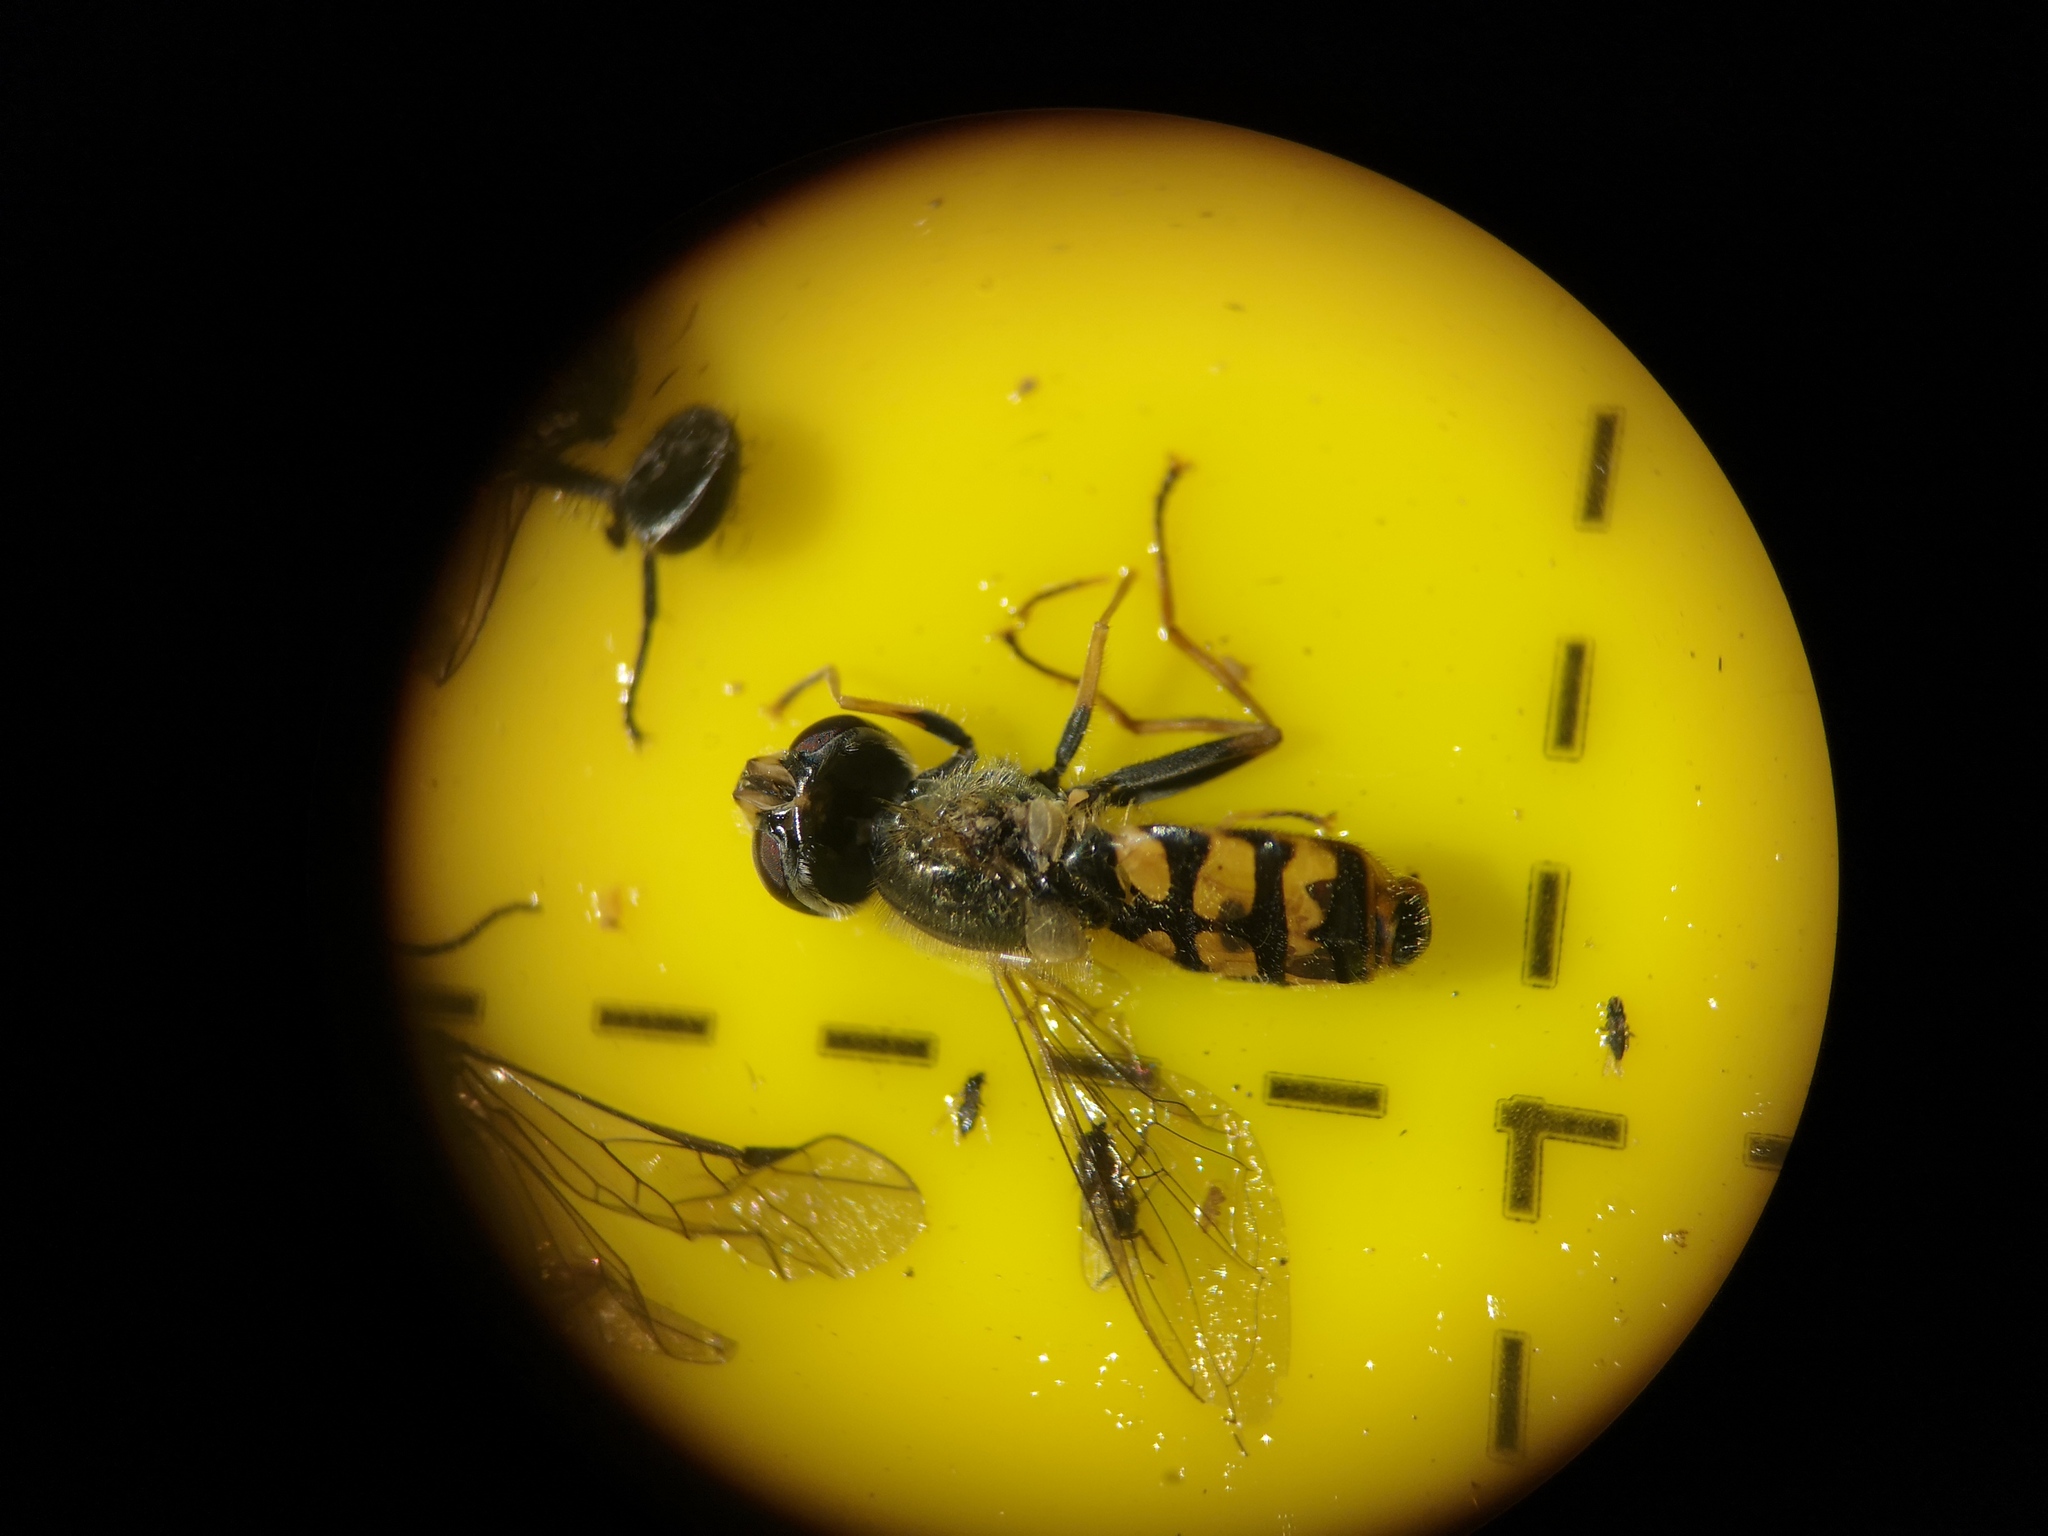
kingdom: Animalia
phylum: Arthropoda
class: Insecta
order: Diptera
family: Syrphidae
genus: Eupeodes
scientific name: Eupeodes corollae
